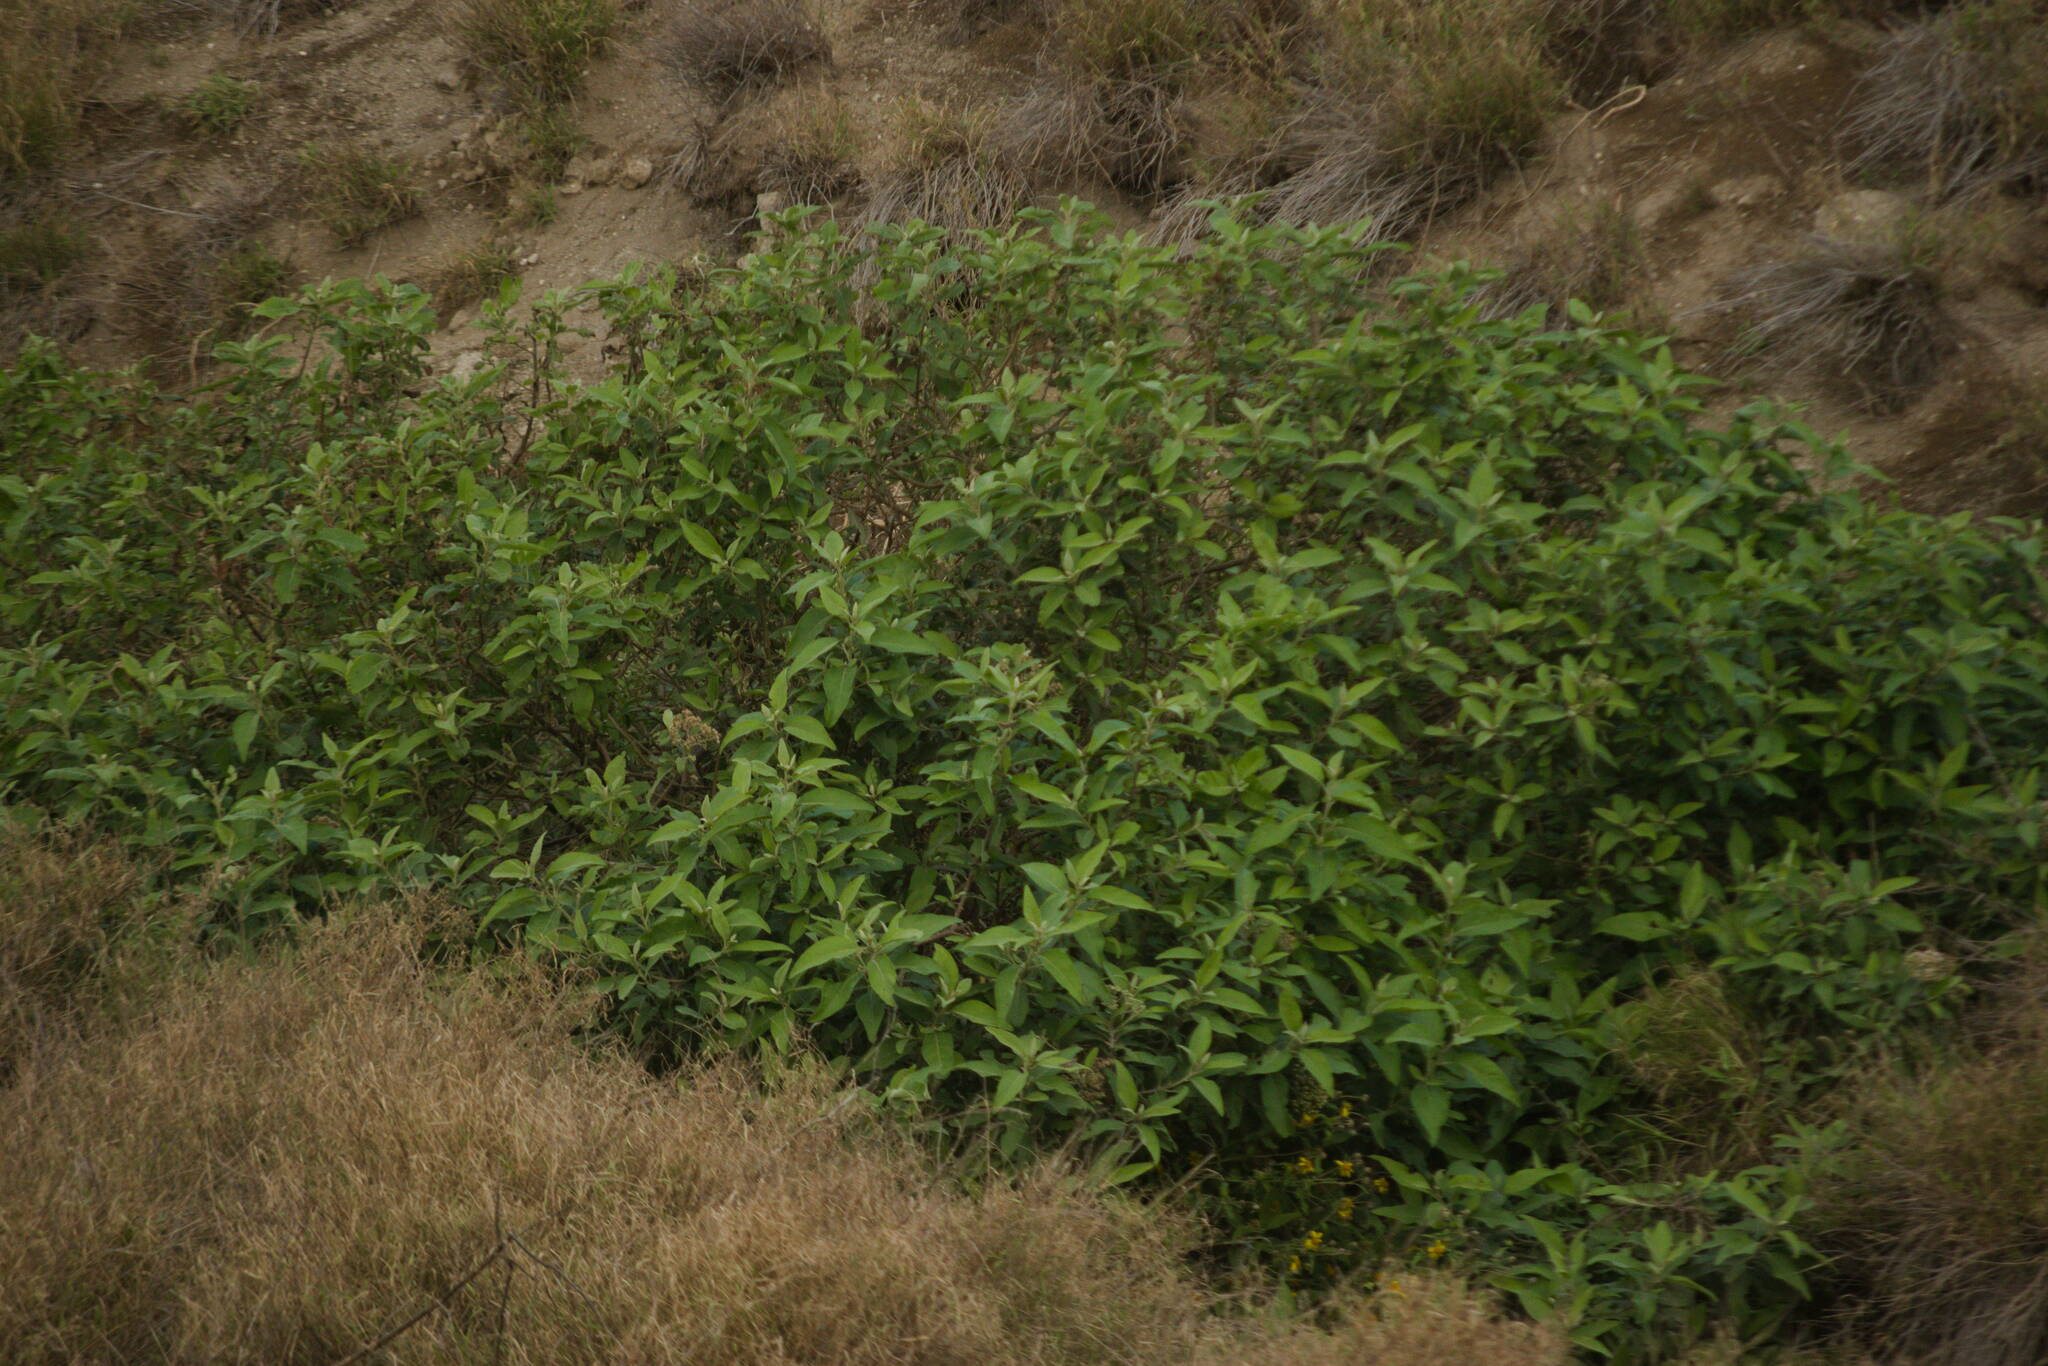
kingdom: Plantae
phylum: Tracheophyta
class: Magnoliopsida
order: Asterales
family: Asteraceae
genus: Pluchea
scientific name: Pluchea carolinensis
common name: Marsh fleabane
